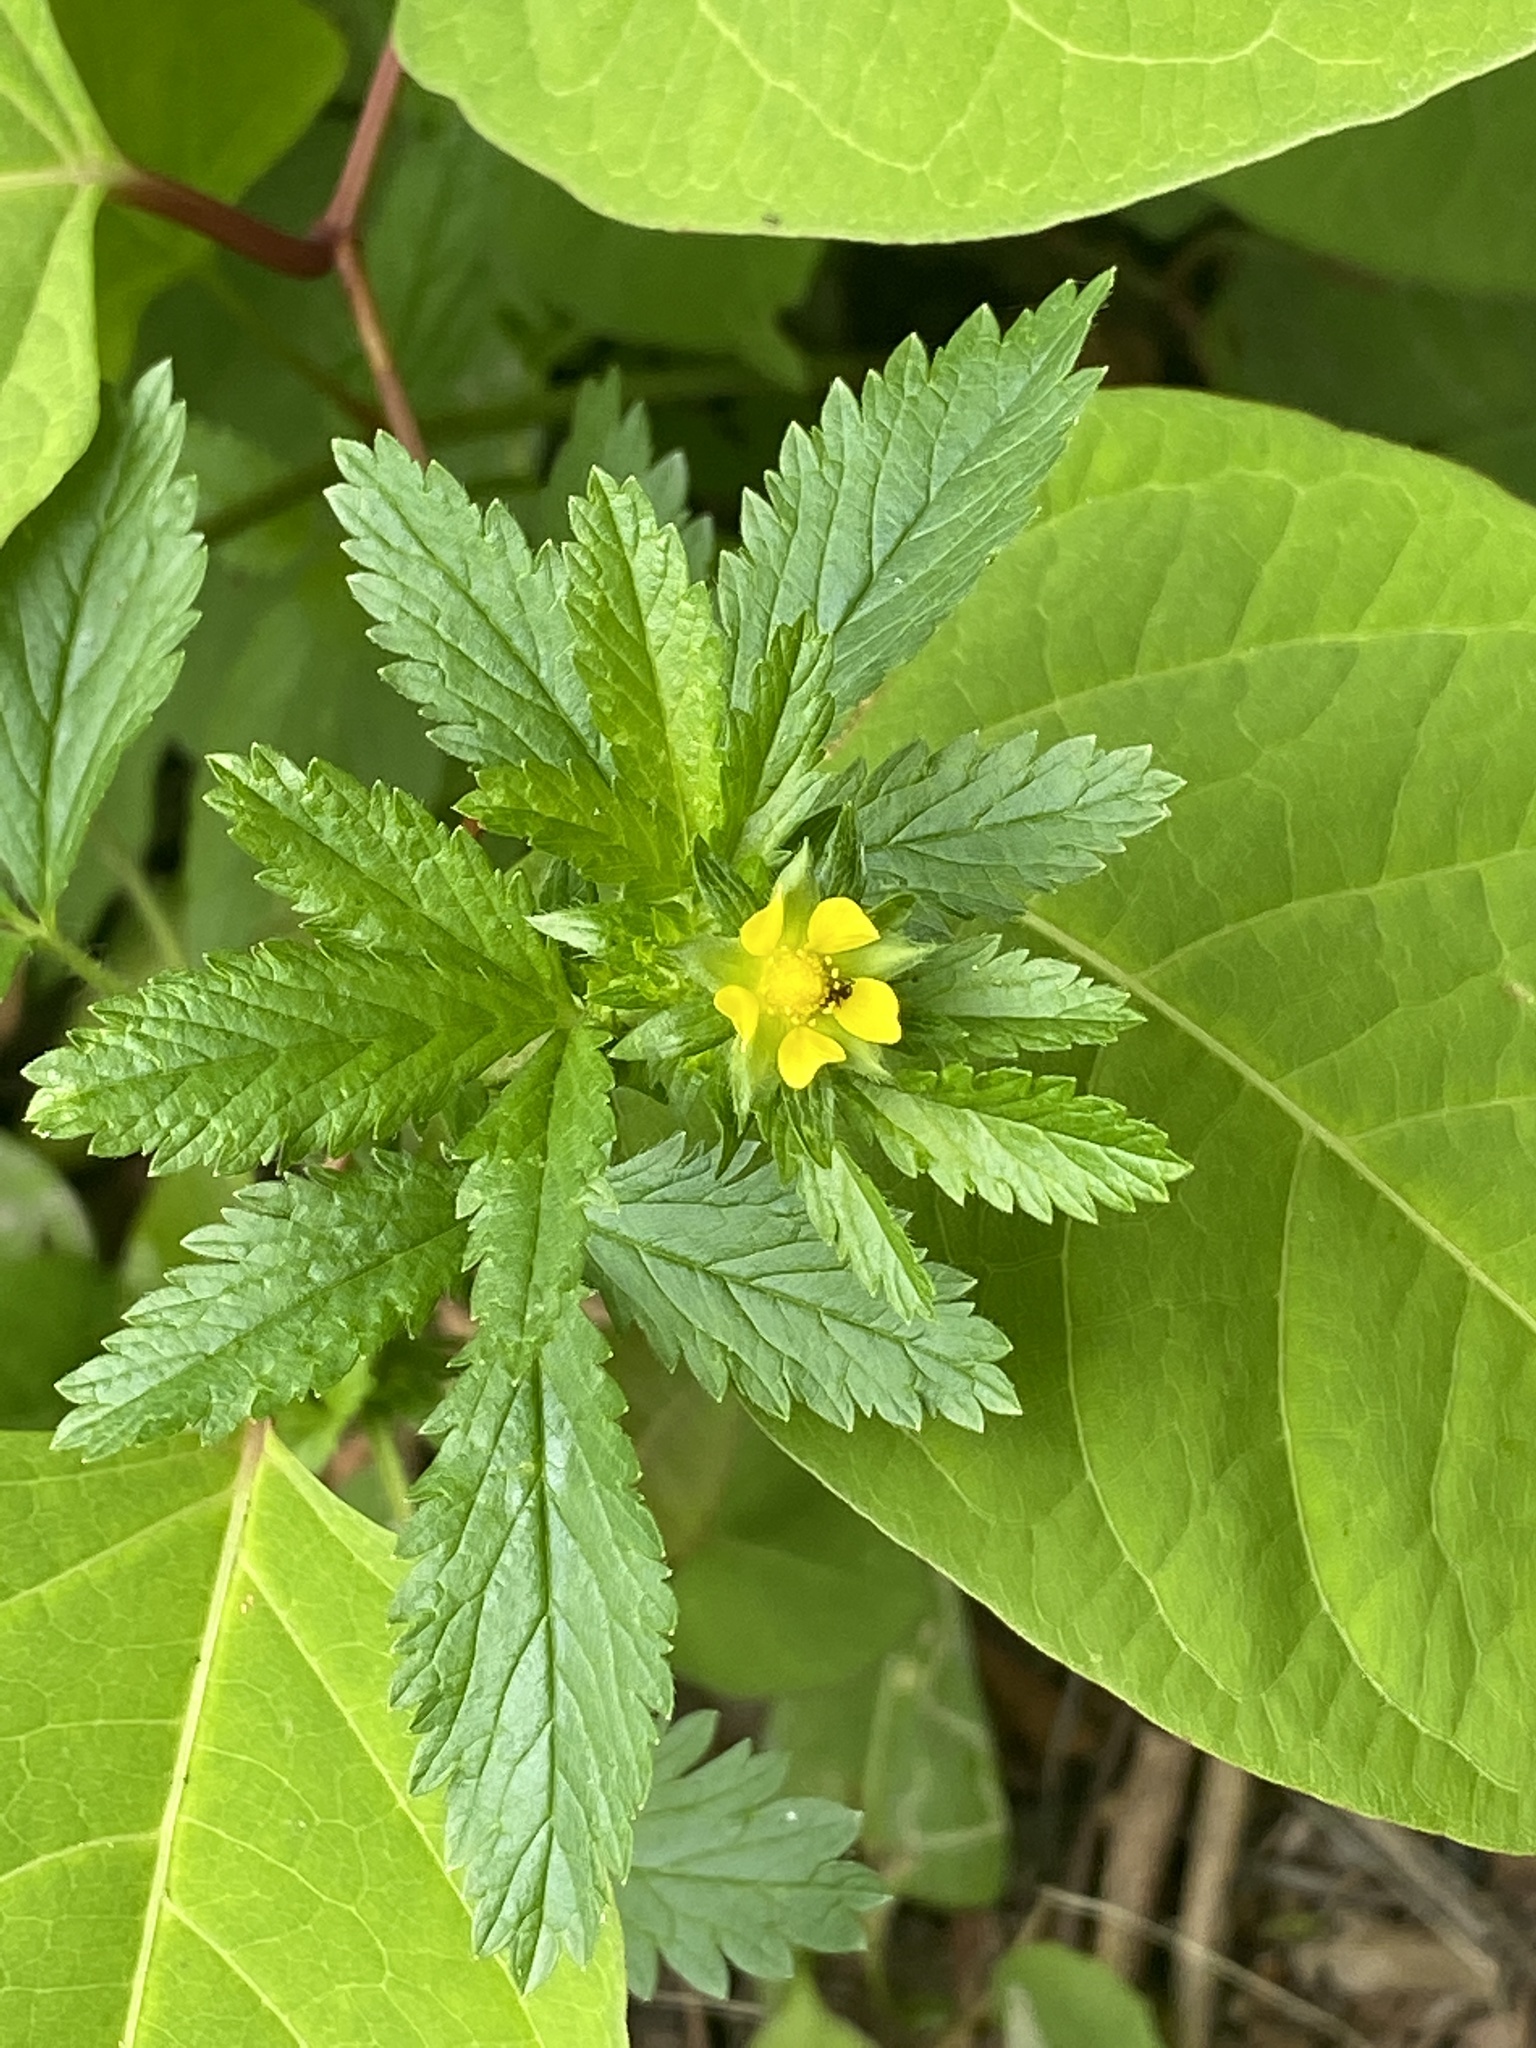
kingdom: Plantae
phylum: Tracheophyta
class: Magnoliopsida
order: Rosales
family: Rosaceae
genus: Potentilla
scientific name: Potentilla norvegica
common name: Ternate-leaved cinquefoil
